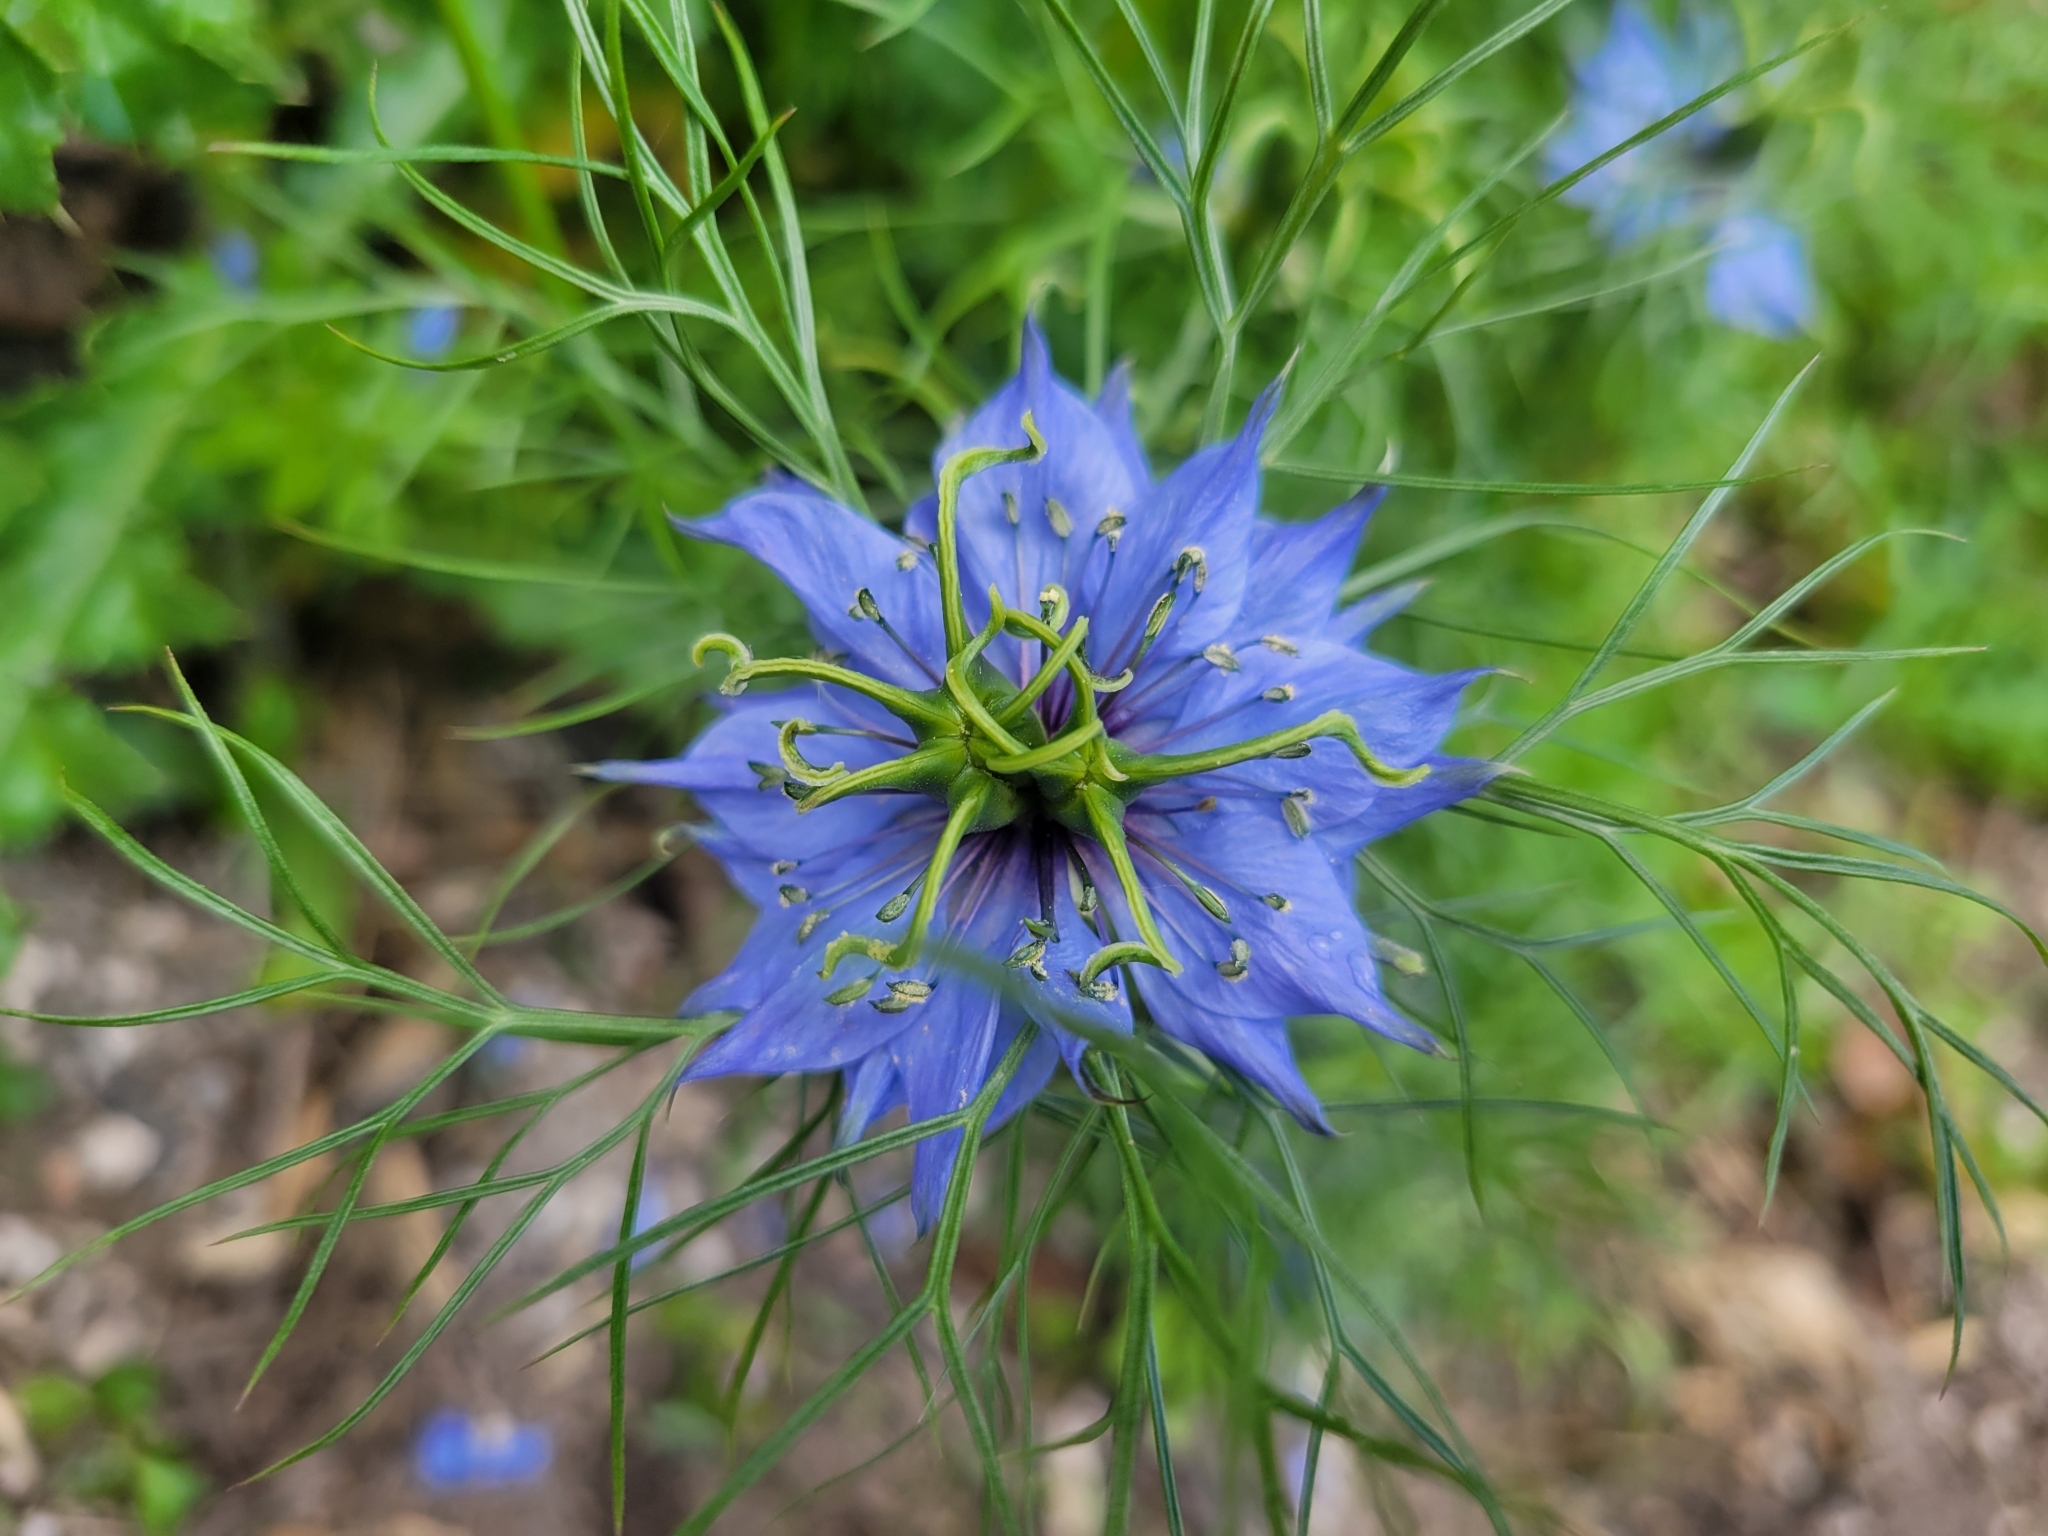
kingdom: Plantae
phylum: Tracheophyta
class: Magnoliopsida
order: Ranunculales
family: Ranunculaceae
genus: Nigella
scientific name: Nigella damascena
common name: Love-in-a-mist
